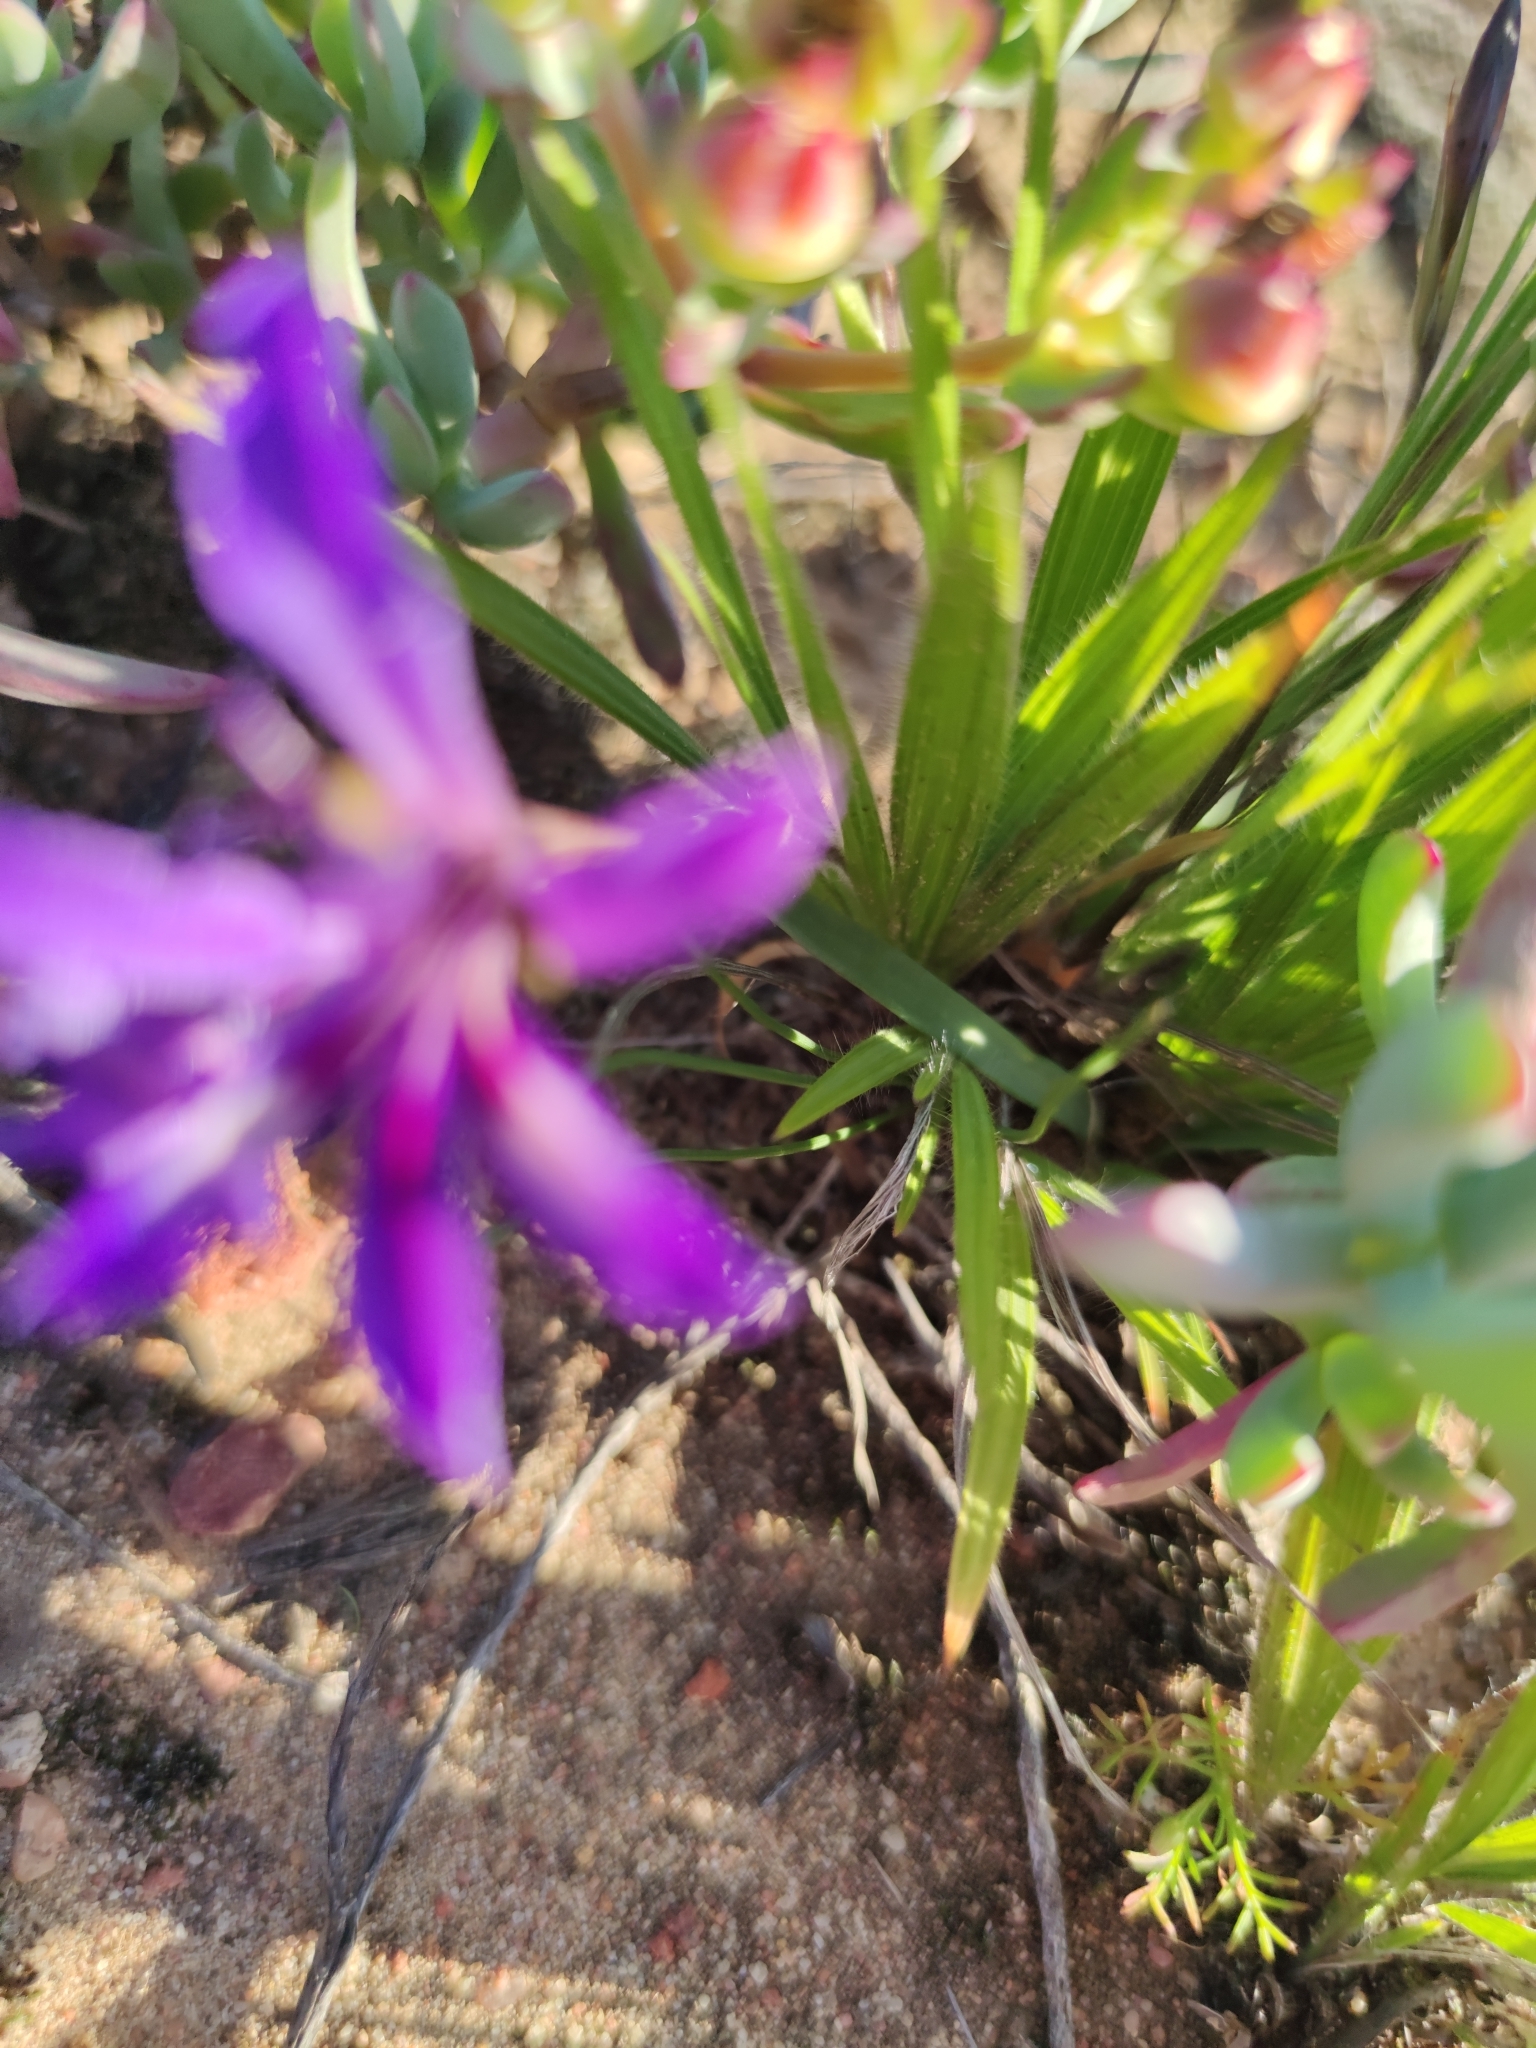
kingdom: Plantae
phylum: Tracheophyta
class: Liliopsida
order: Asparagales
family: Iridaceae
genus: Babiana
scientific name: Babiana ecklonii
